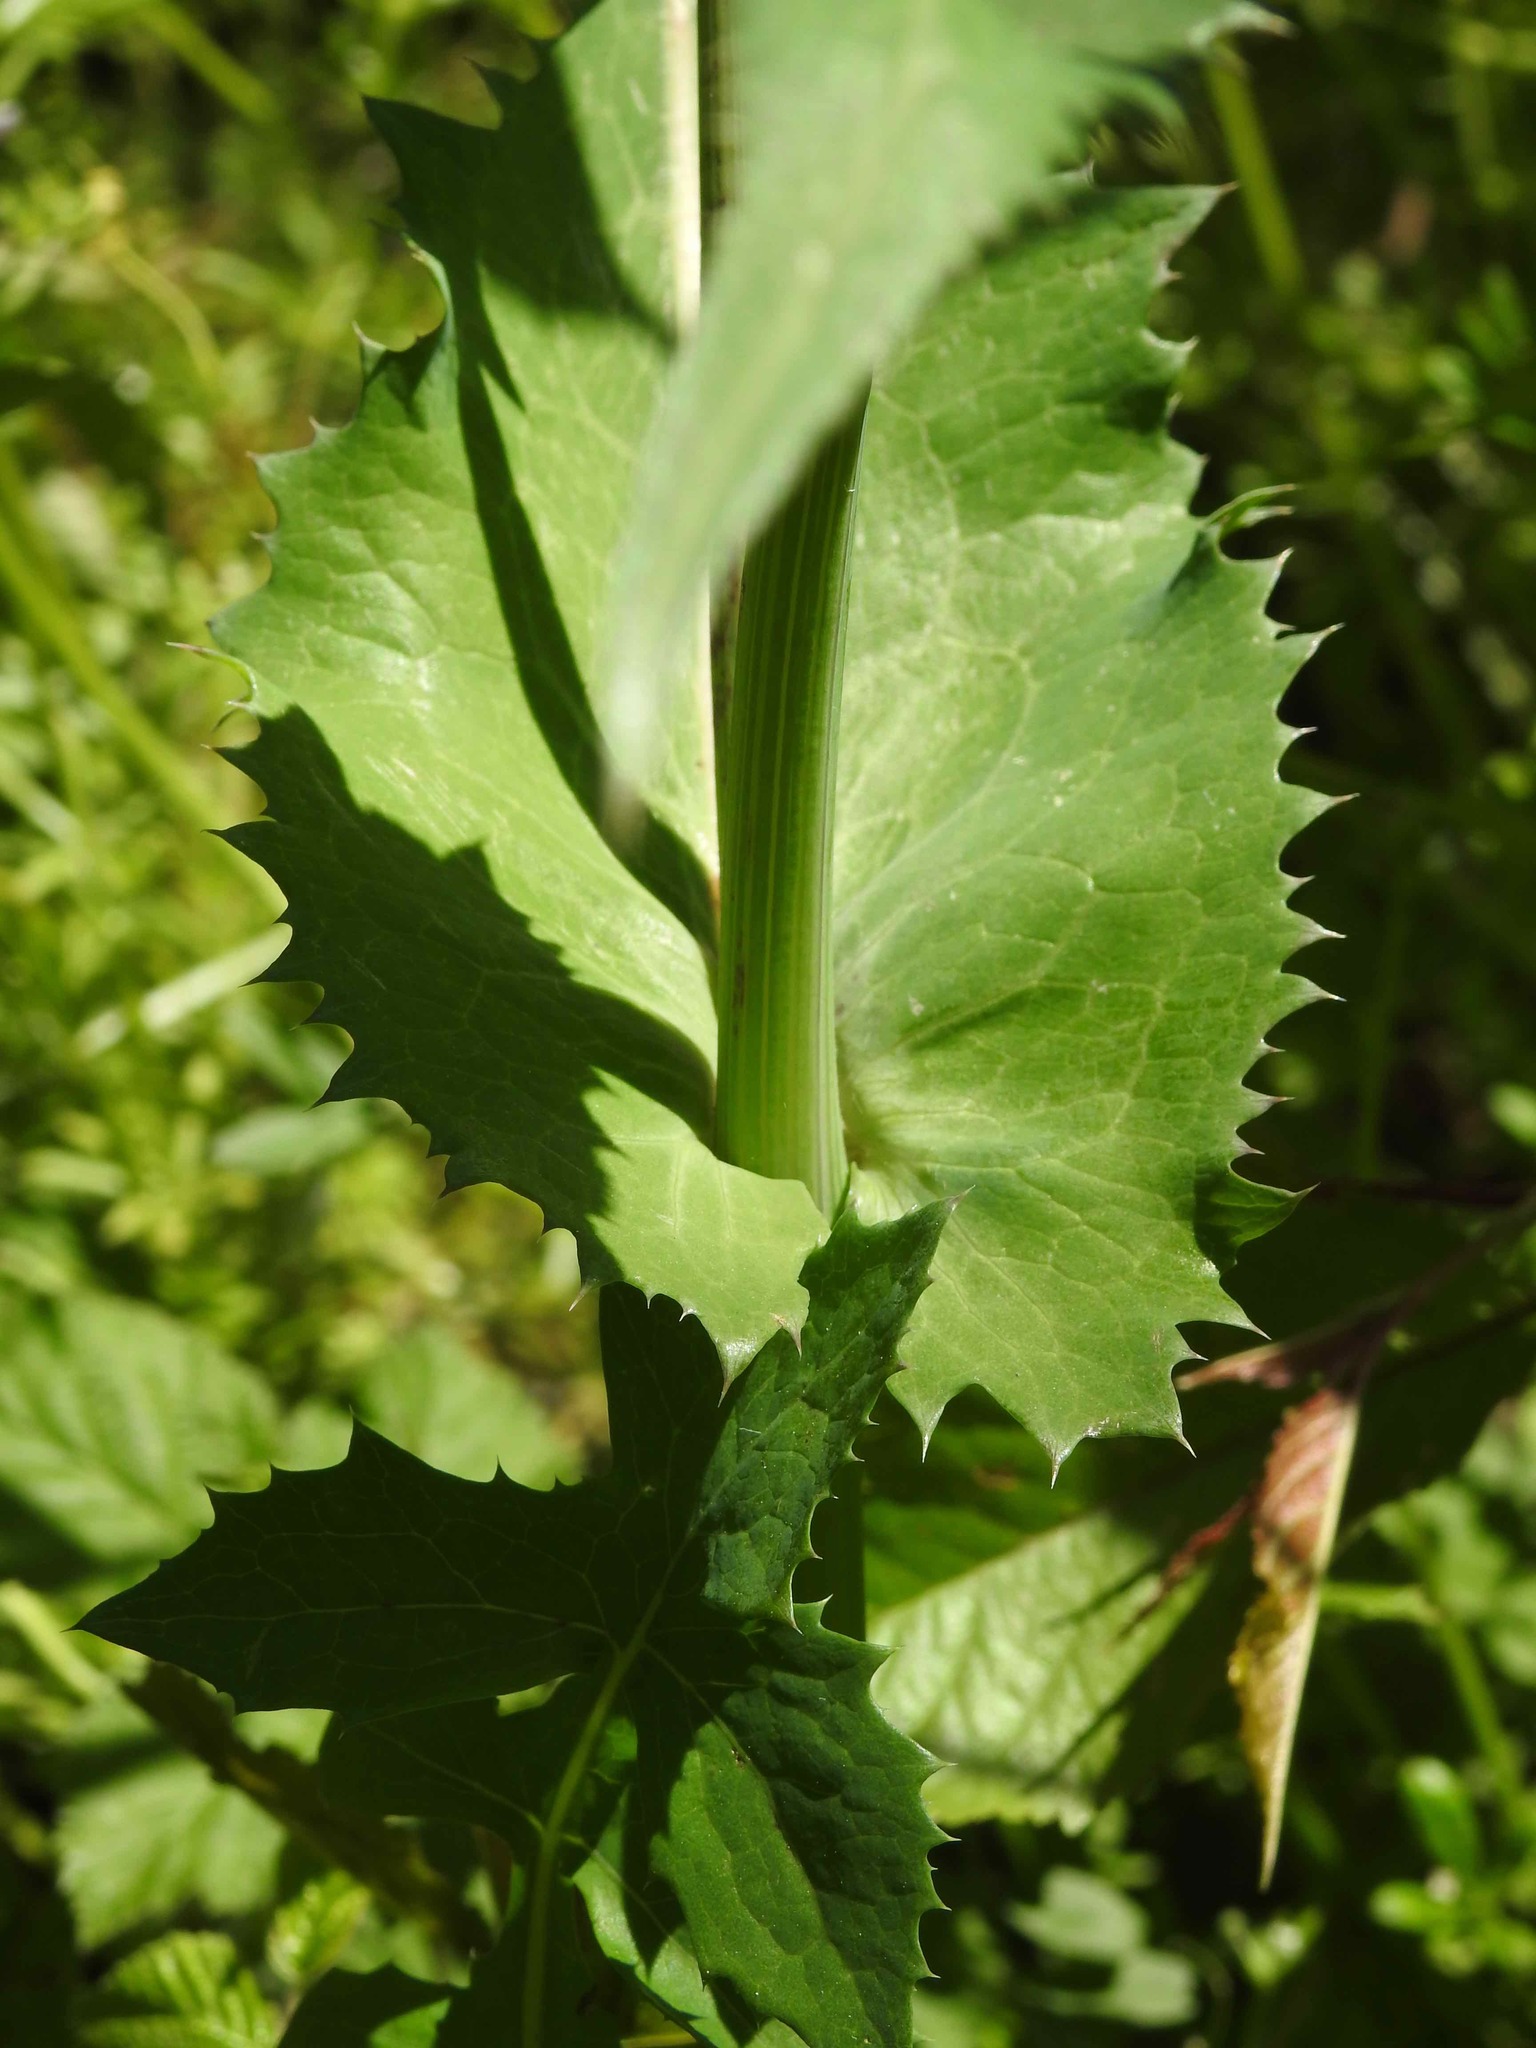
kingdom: Plantae
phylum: Tracheophyta
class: Magnoliopsida
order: Asterales
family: Asteraceae
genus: Sonchus
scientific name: Sonchus oleraceus
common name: Common sowthistle
